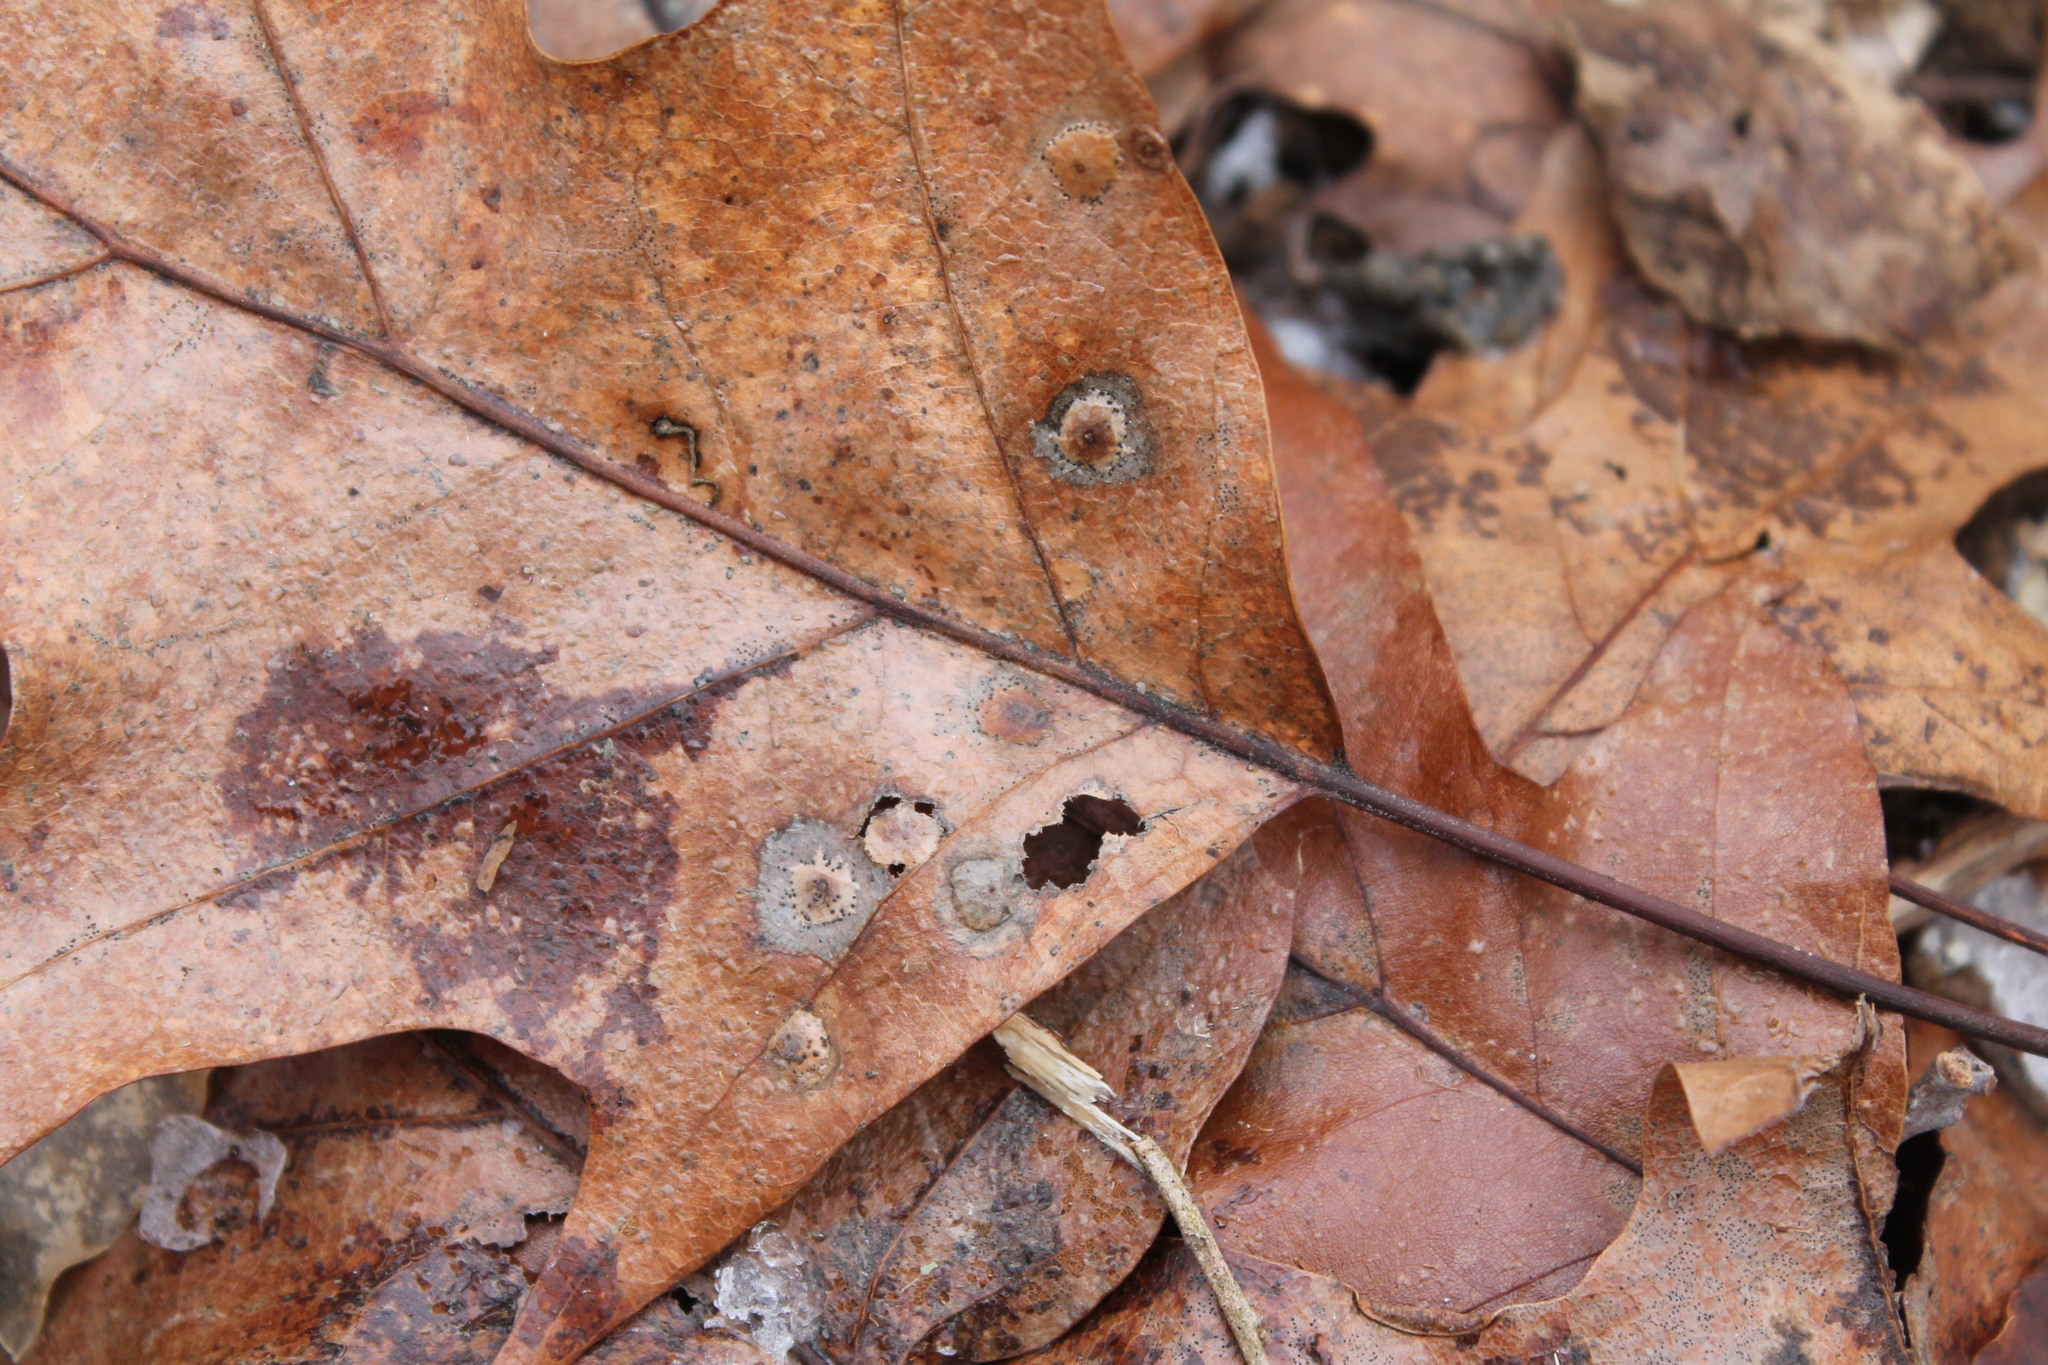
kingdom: Fungi
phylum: Ascomycota
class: Sordariomycetes
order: Diaporthales
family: Melanconidaceae
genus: Dicarpella
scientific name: Dicarpella dryina
